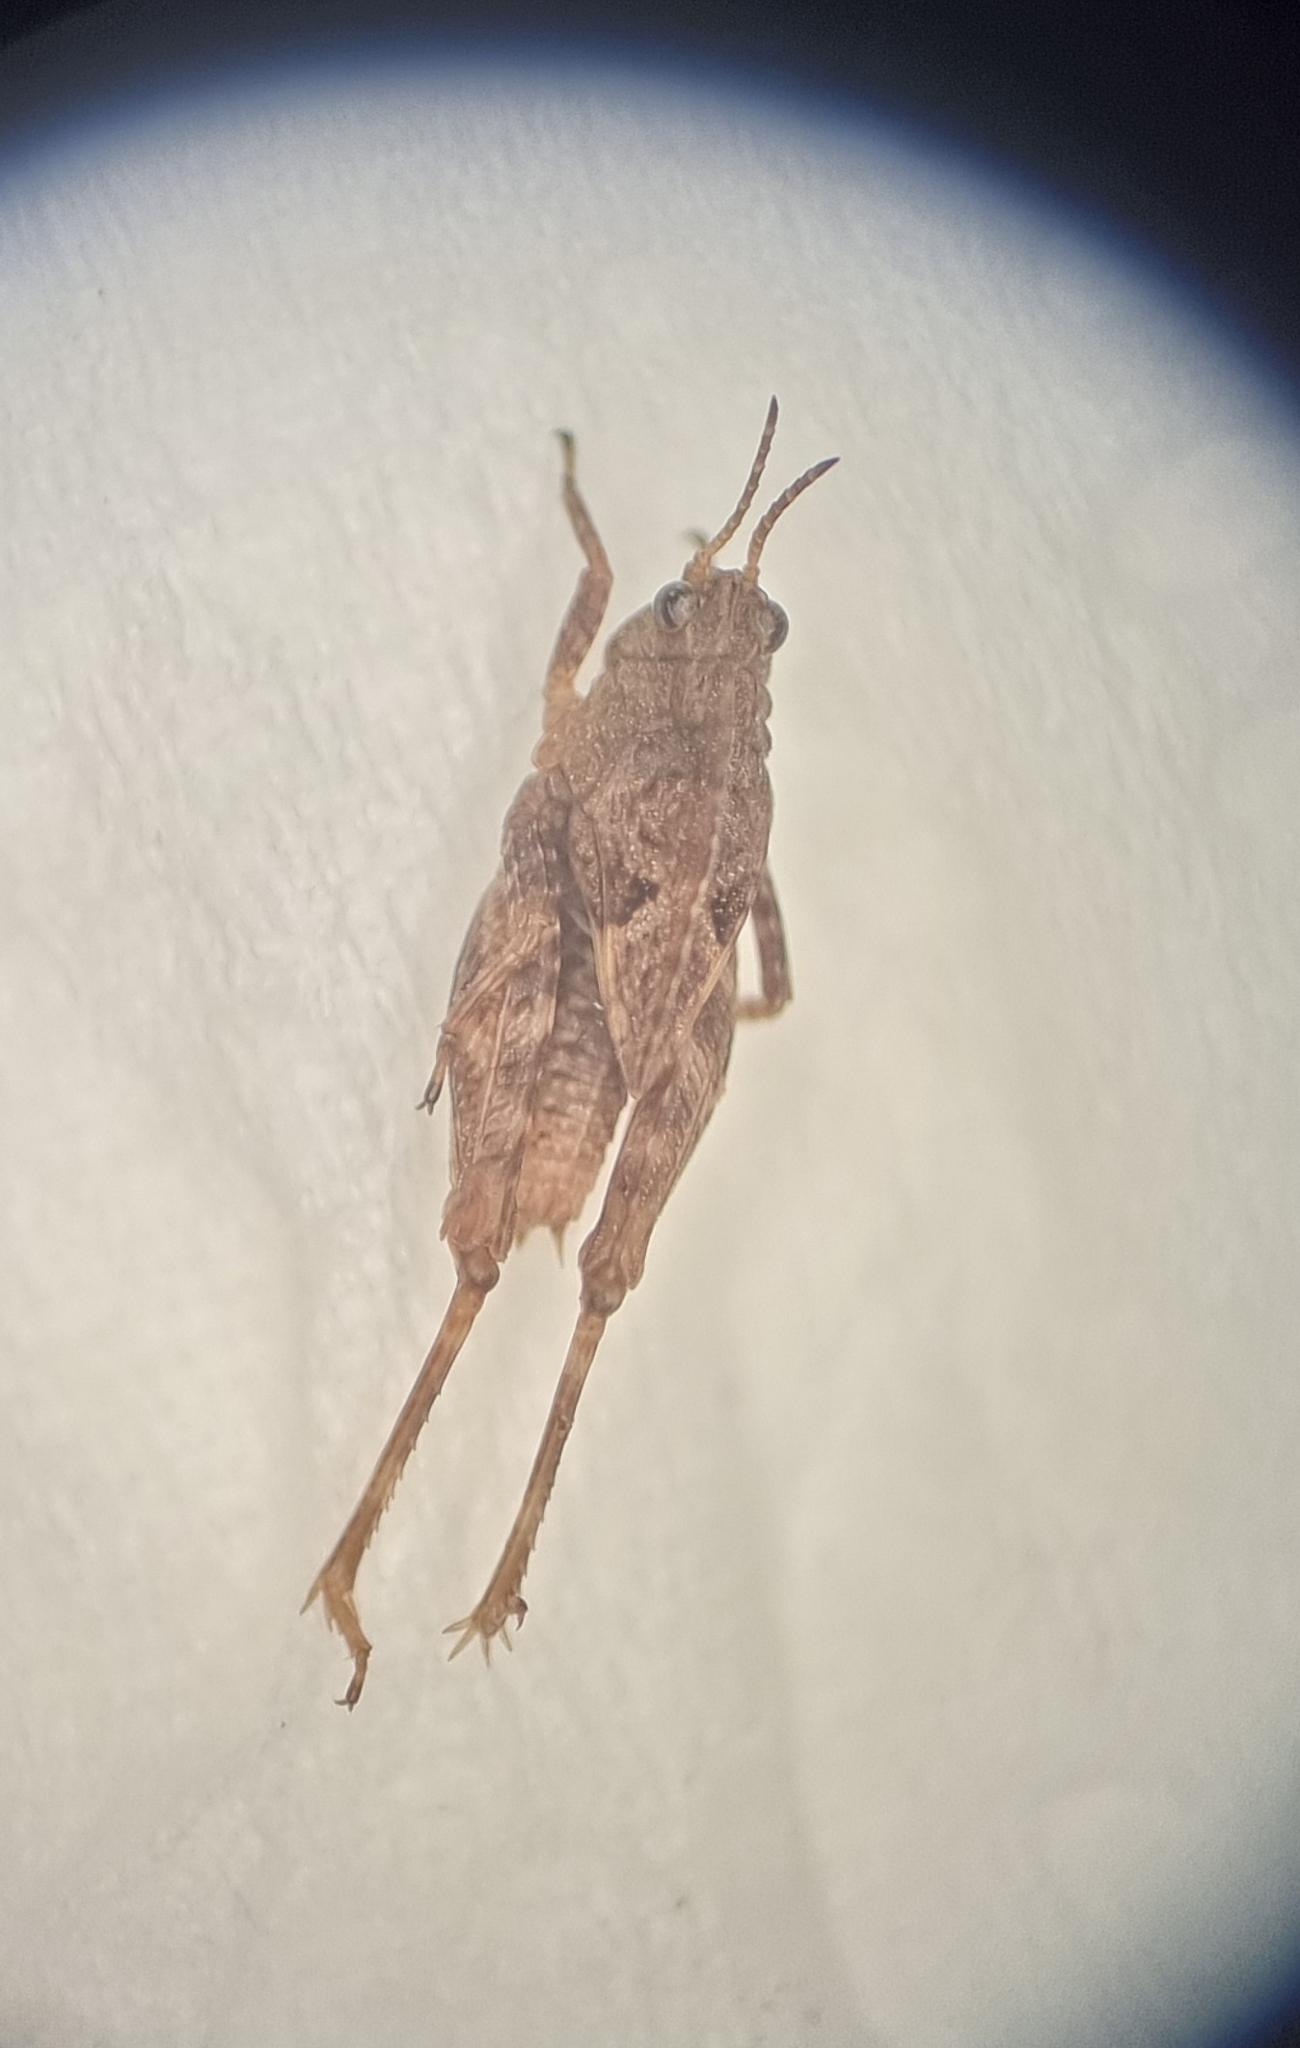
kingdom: Animalia
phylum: Arthropoda
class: Insecta
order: Orthoptera
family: Tetrigidae
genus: Tetrix
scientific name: Tetrix undulata
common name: Common groundhopper
